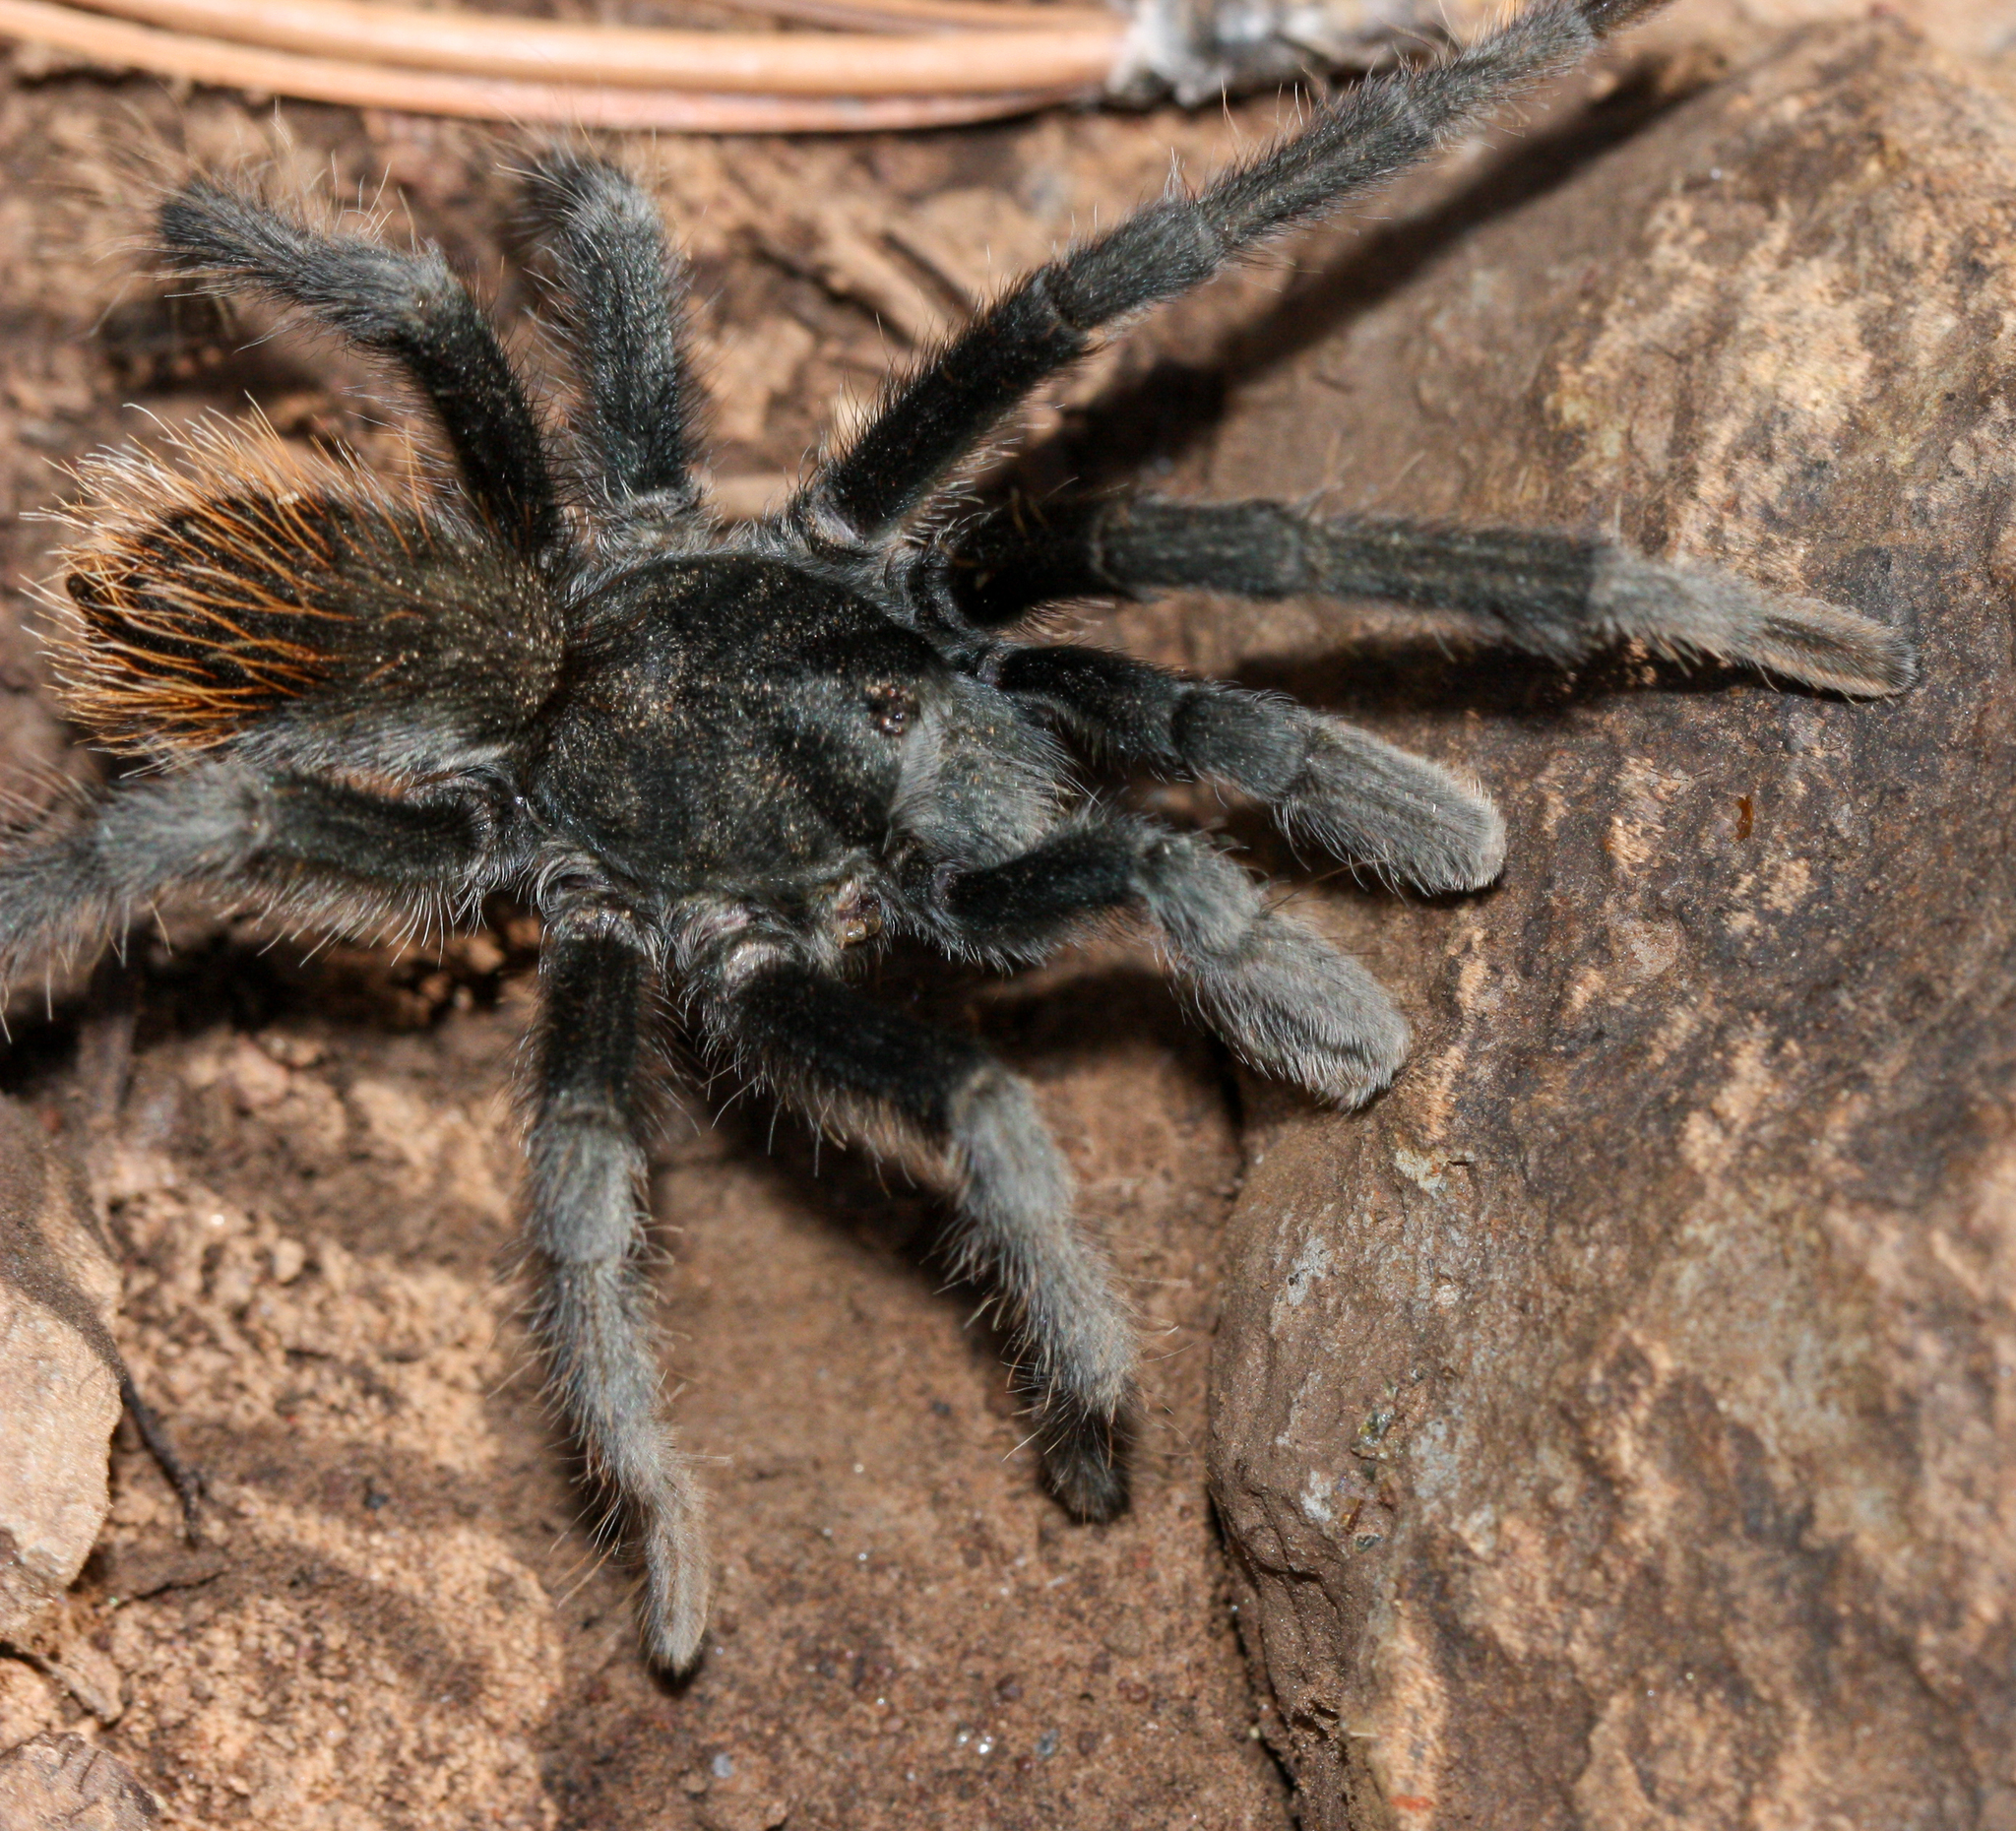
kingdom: Animalia
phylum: Arthropoda
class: Arachnida
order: Araneae
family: Theraphosidae
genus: Aphonopelma
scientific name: Aphonopelma marxi
